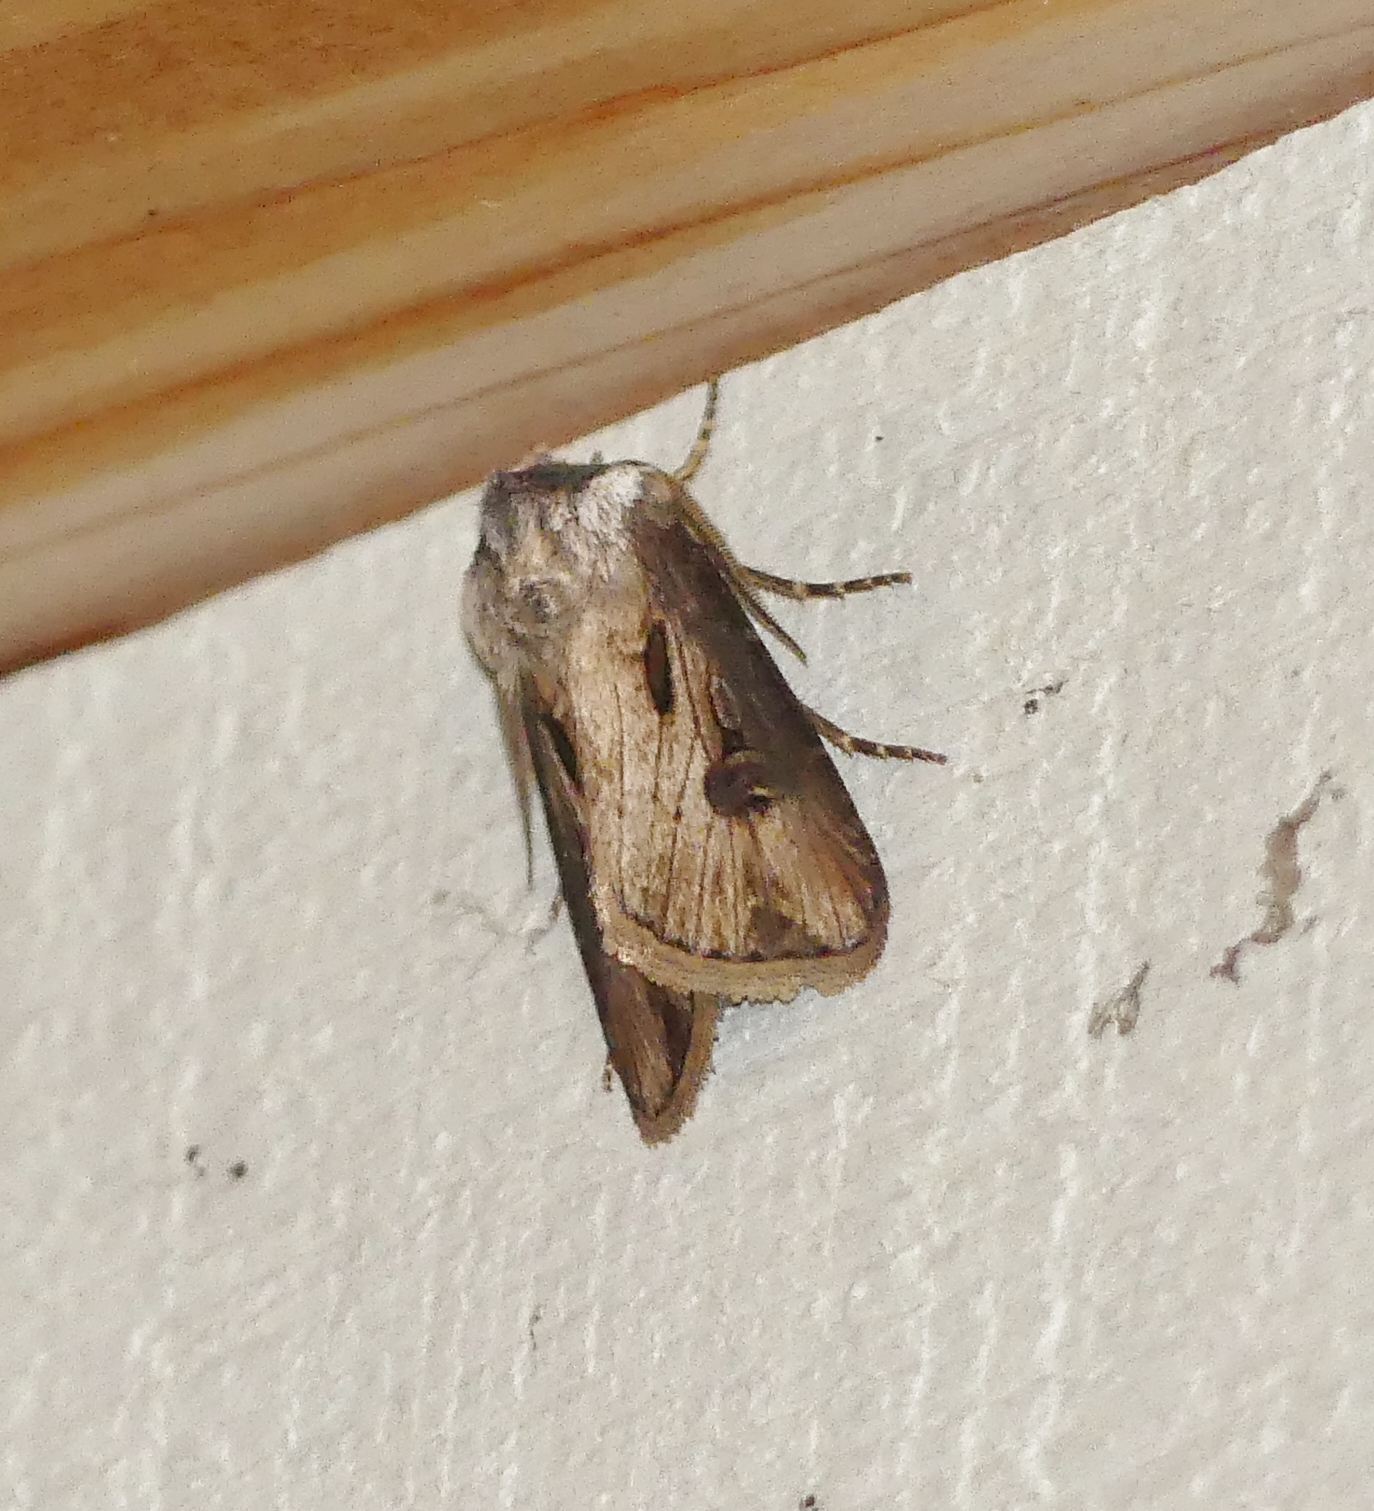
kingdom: Animalia
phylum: Arthropoda
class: Insecta
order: Lepidoptera
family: Noctuidae
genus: Agrotis
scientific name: Agrotis venerabilis
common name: Venerable dart
